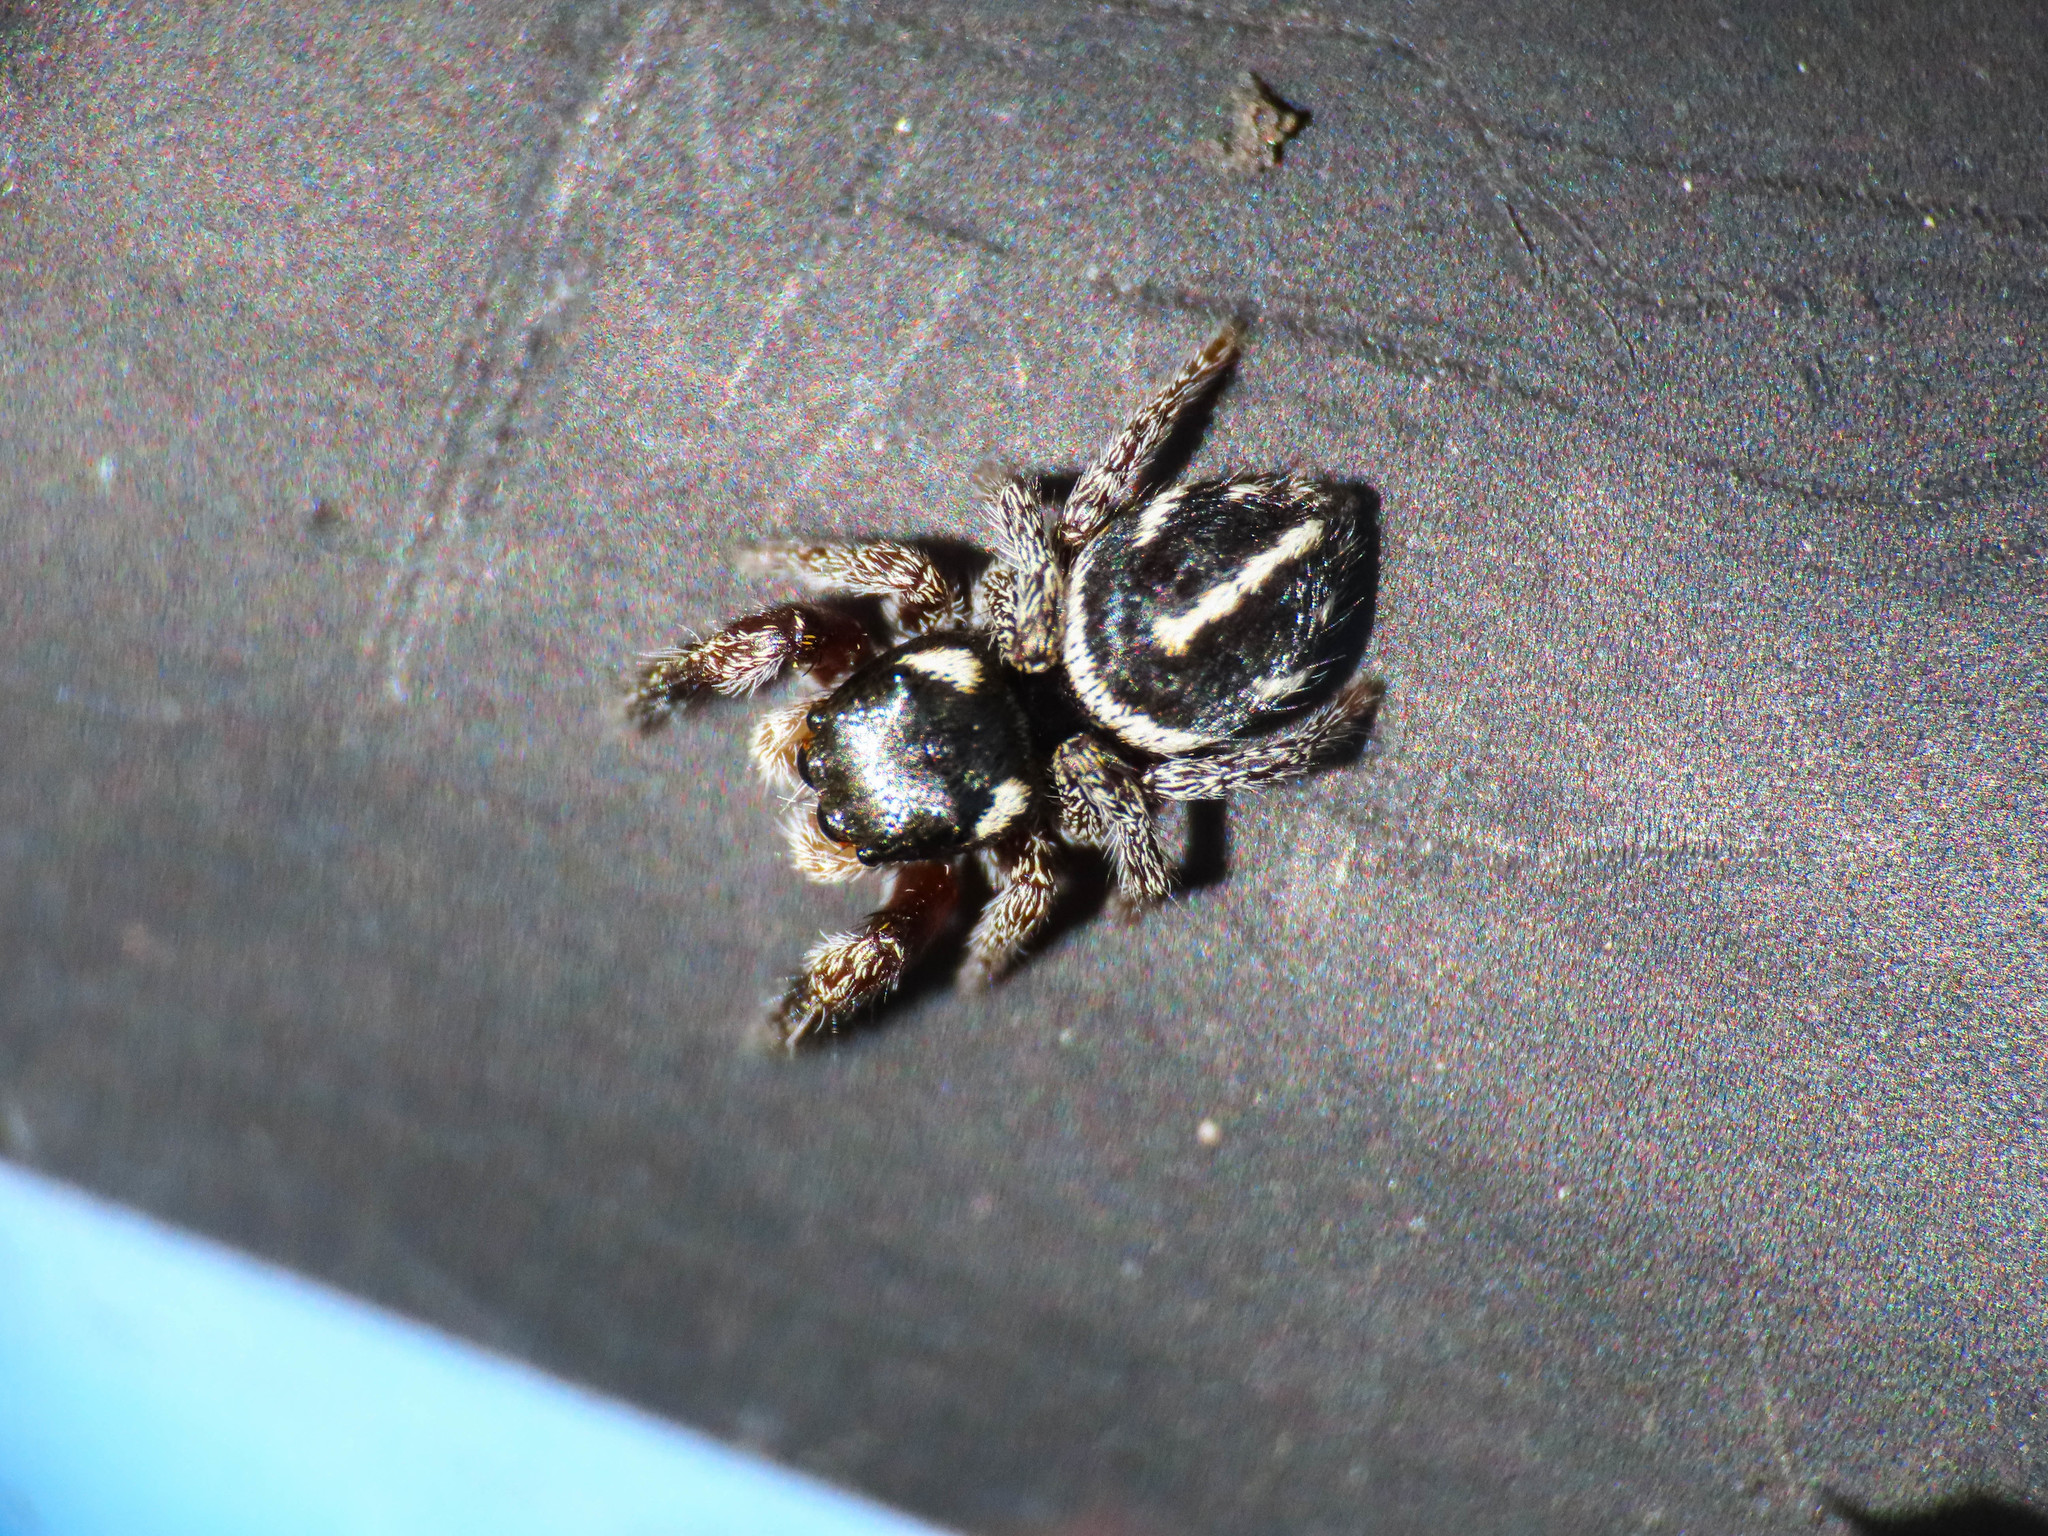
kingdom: Animalia
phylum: Arthropoda
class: Arachnida
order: Araneae
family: Salticidae
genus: Pellenes
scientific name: Pellenes nigrociliatus
